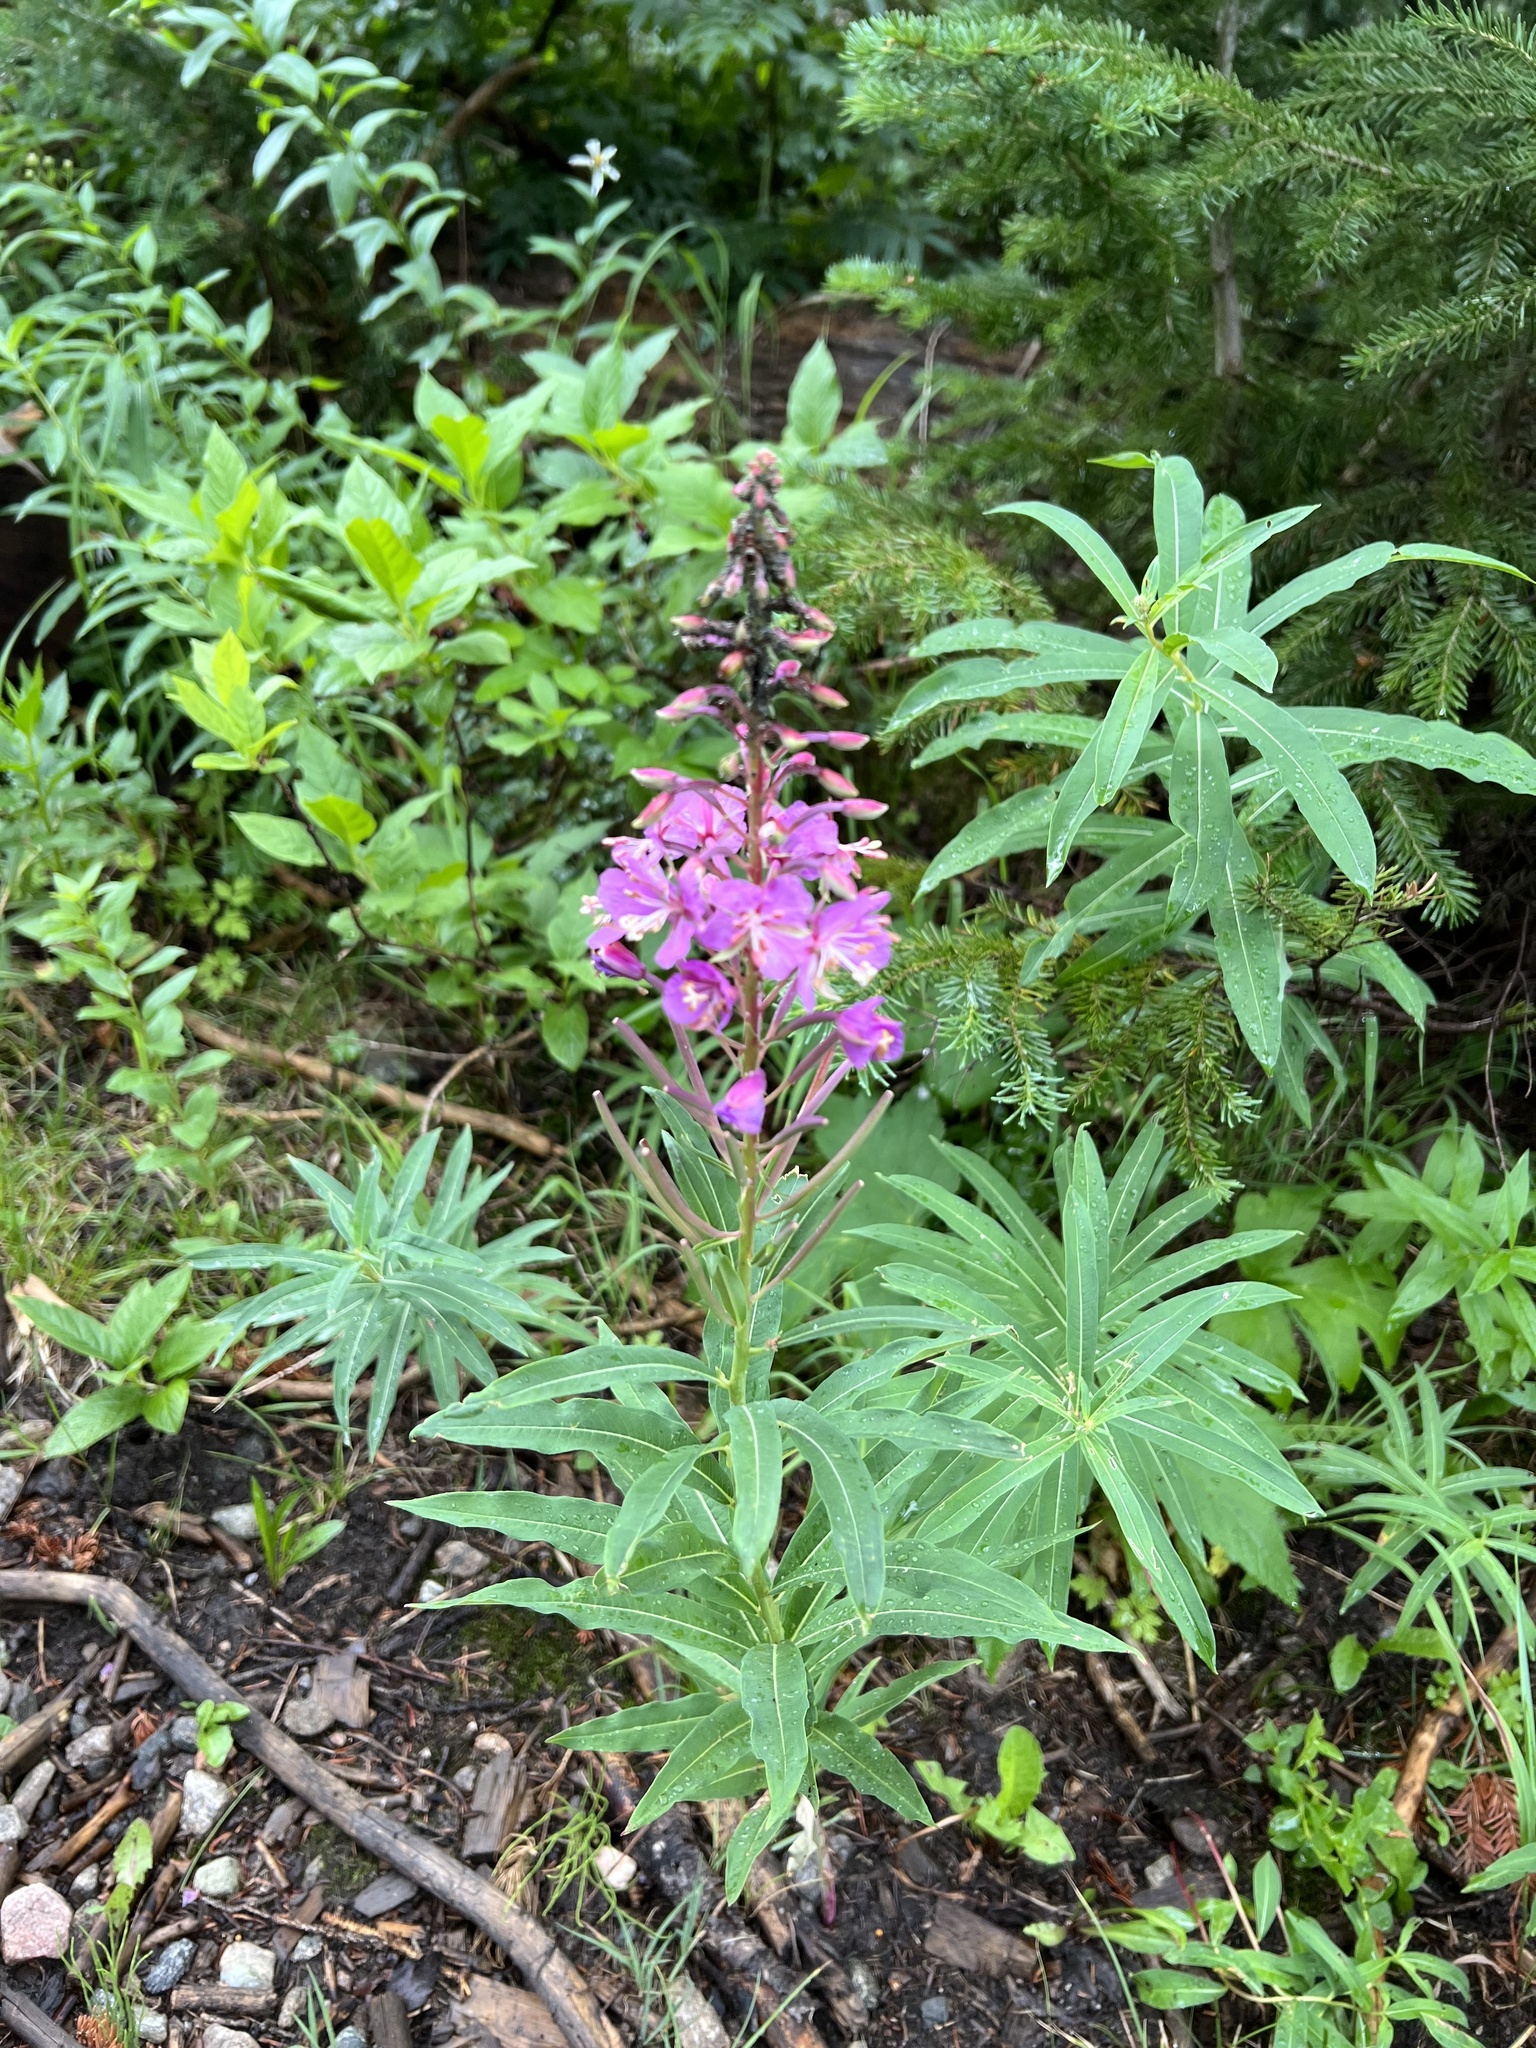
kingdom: Plantae
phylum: Tracheophyta
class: Magnoliopsida
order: Myrtales
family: Onagraceae
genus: Chamaenerion
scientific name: Chamaenerion angustifolium
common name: Fireweed
